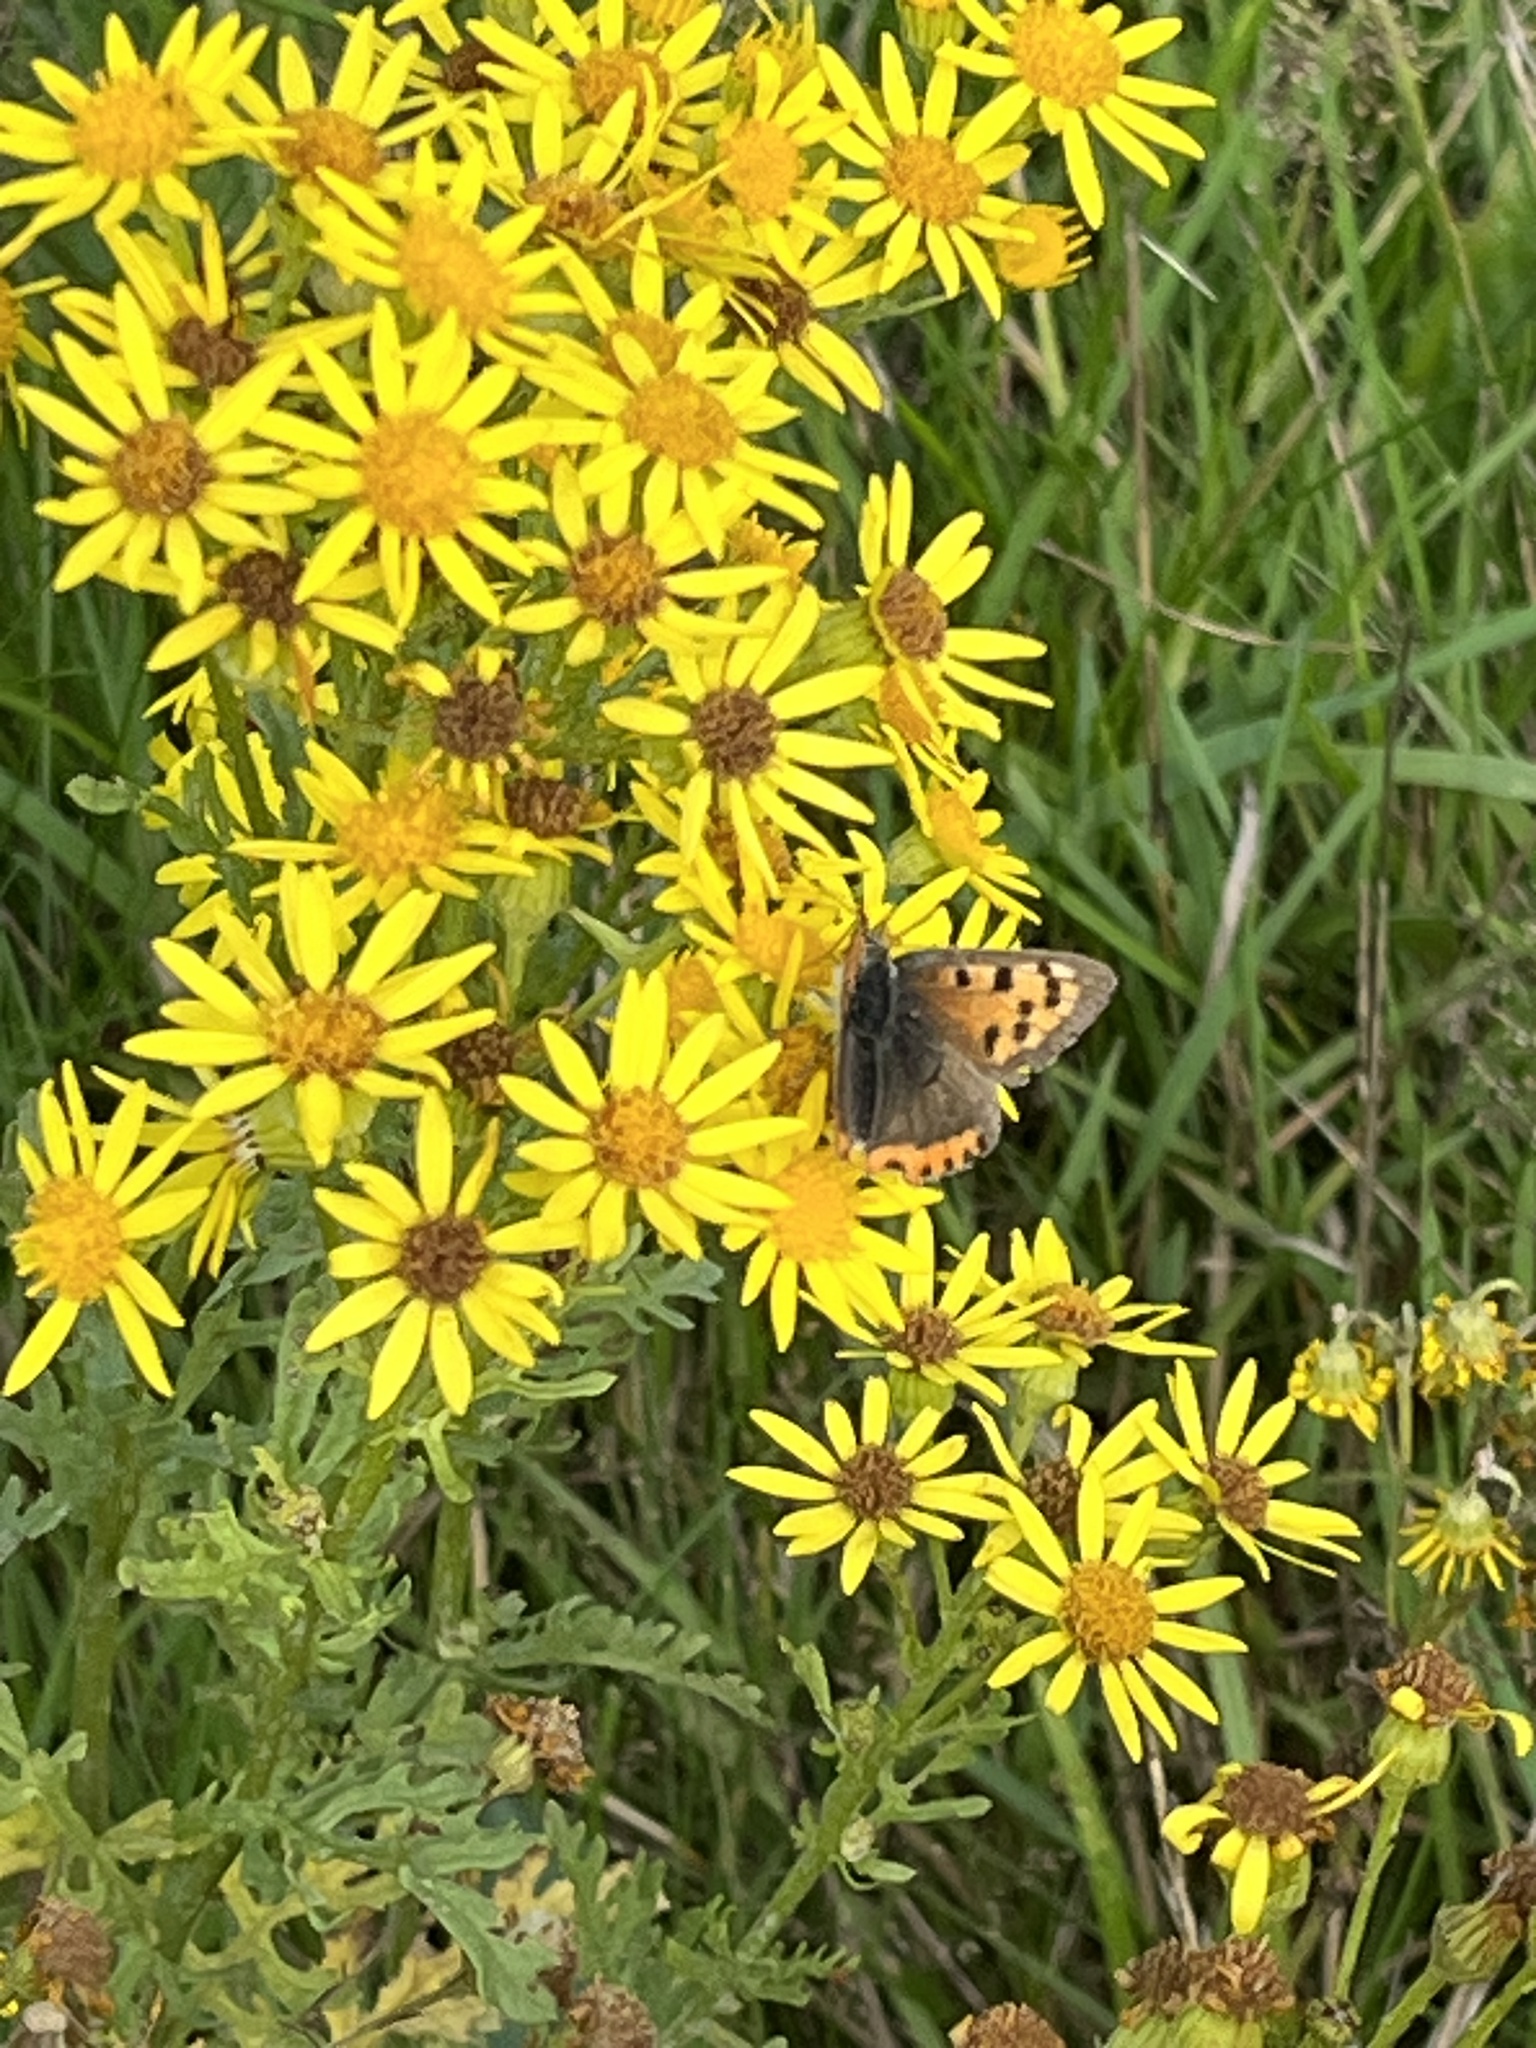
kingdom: Animalia
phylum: Arthropoda
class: Insecta
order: Lepidoptera
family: Lycaenidae
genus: Lycaena
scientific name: Lycaena phlaeas
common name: Small copper
